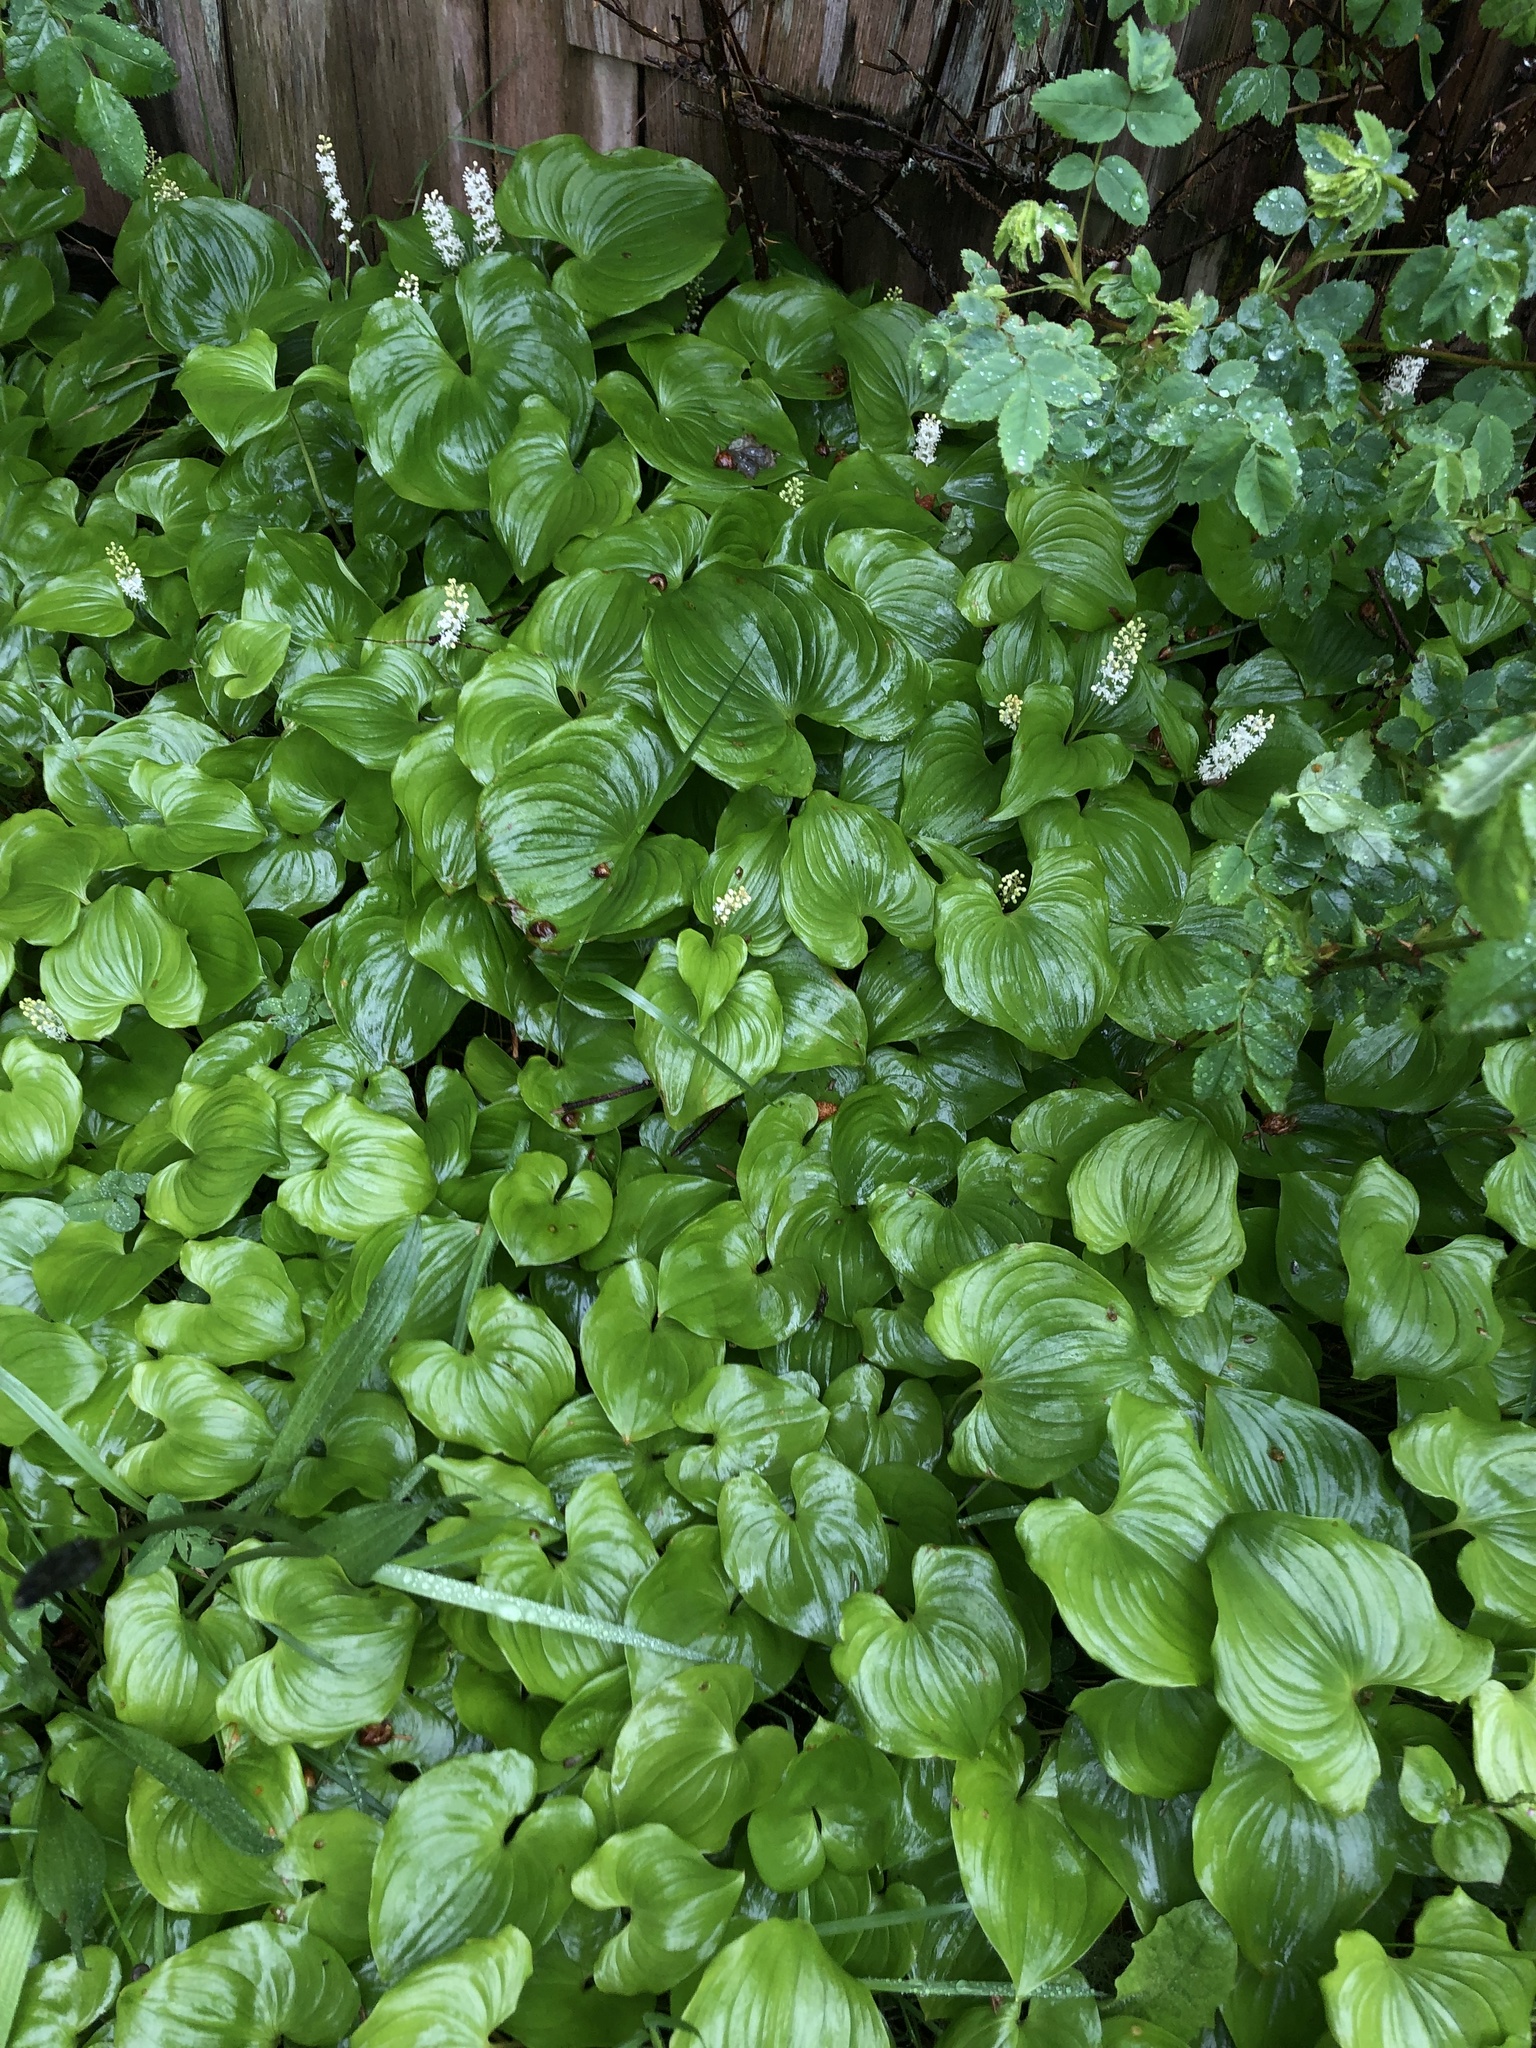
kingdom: Plantae
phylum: Tracheophyta
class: Liliopsida
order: Asparagales
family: Asparagaceae
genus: Maianthemum
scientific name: Maianthemum dilatatum
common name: False lily-of-the-valley
